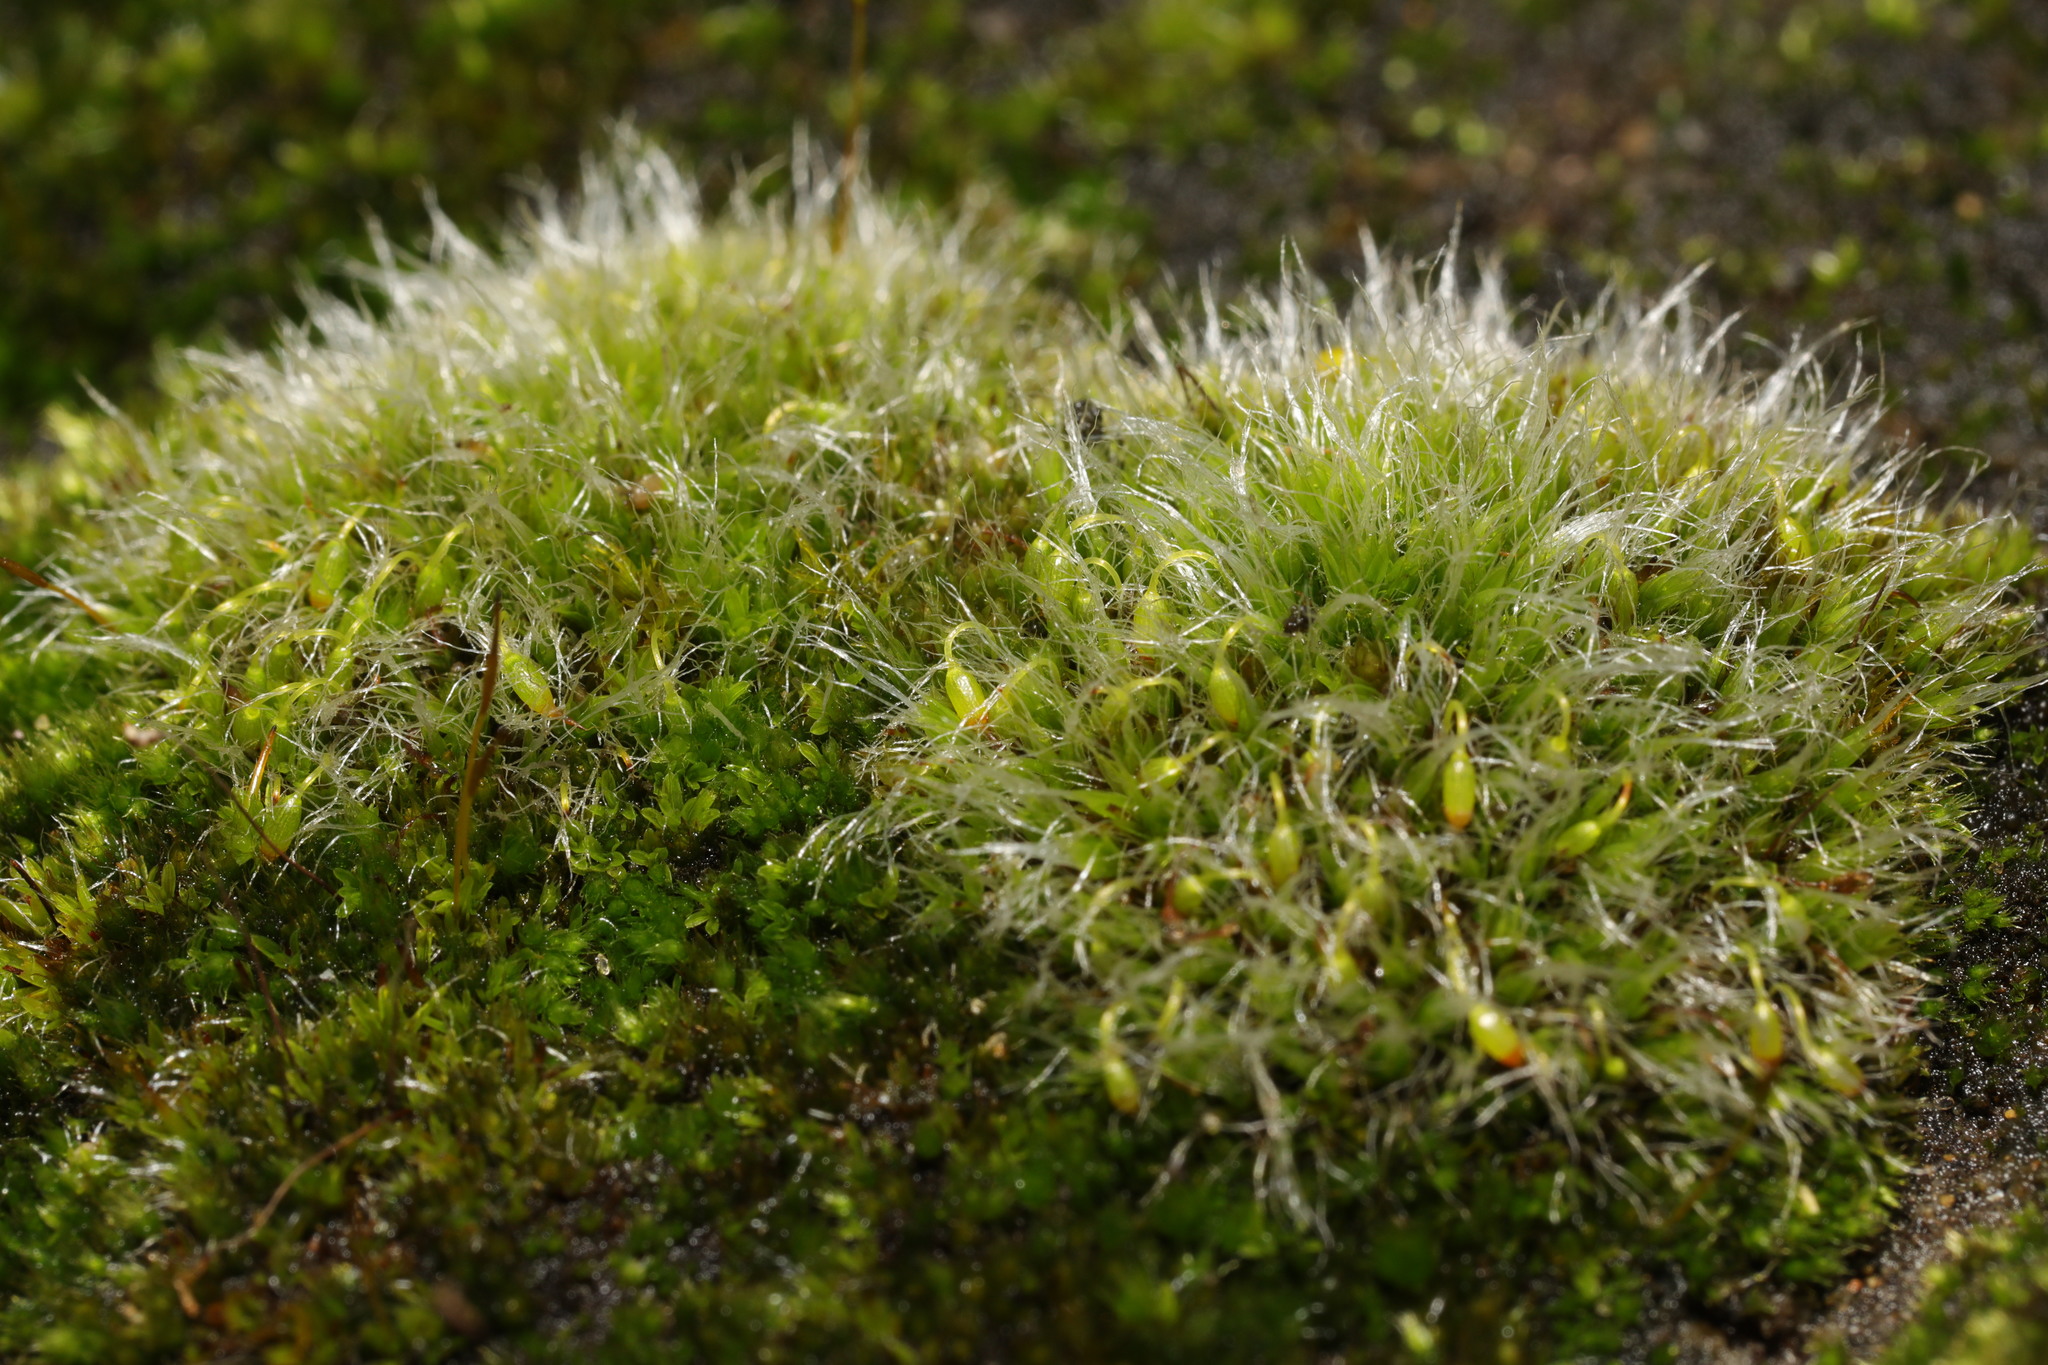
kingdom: Plantae
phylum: Bryophyta
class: Bryopsida
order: Grimmiales
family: Grimmiaceae
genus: Grimmia
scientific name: Grimmia pulvinata
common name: Grey-cushioned grimmia
